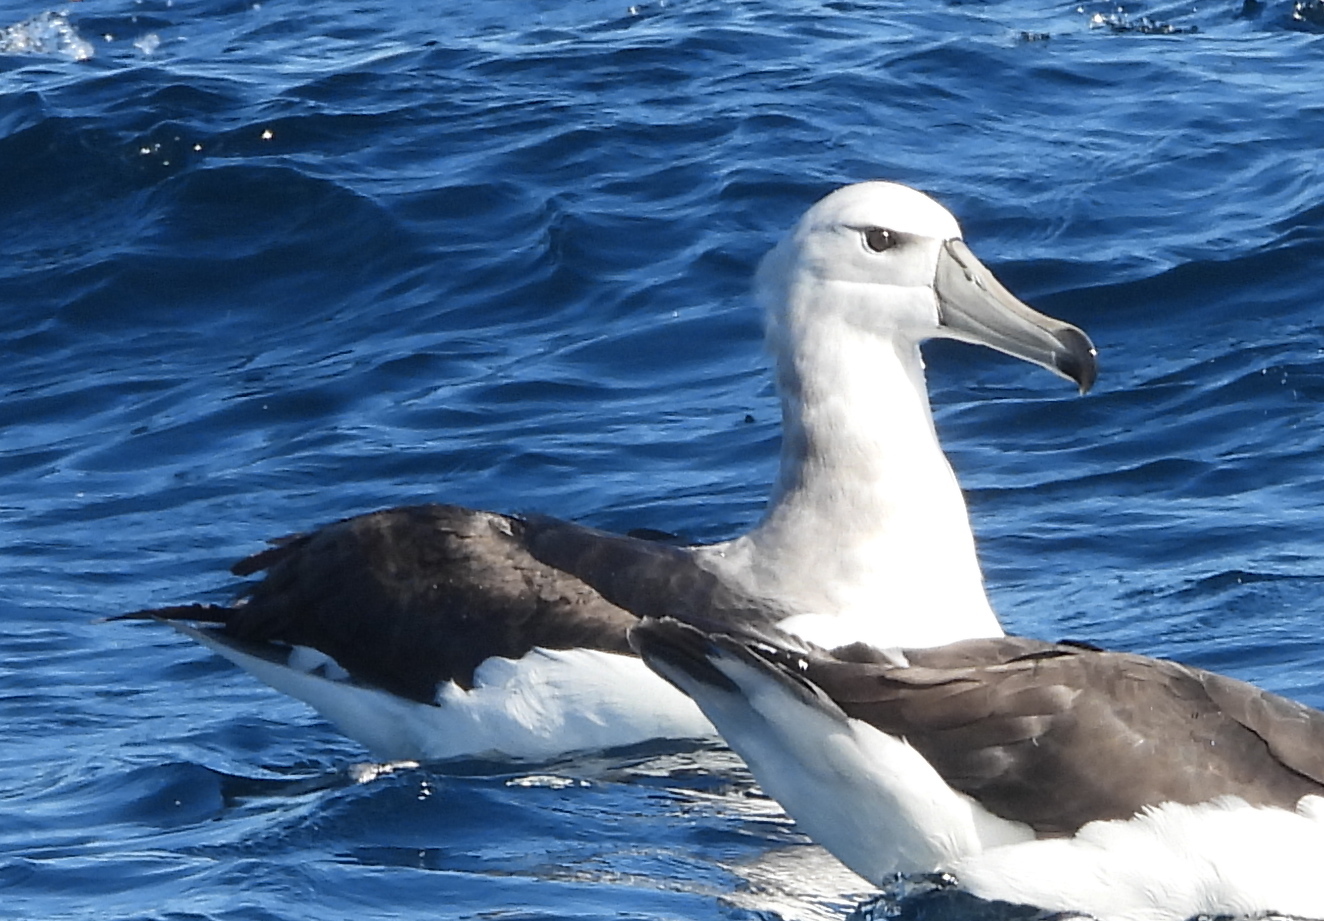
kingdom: Animalia
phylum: Chordata
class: Aves
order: Procellariiformes
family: Diomedeidae
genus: Thalassarche
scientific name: Thalassarche cauta
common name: Shy albatross
